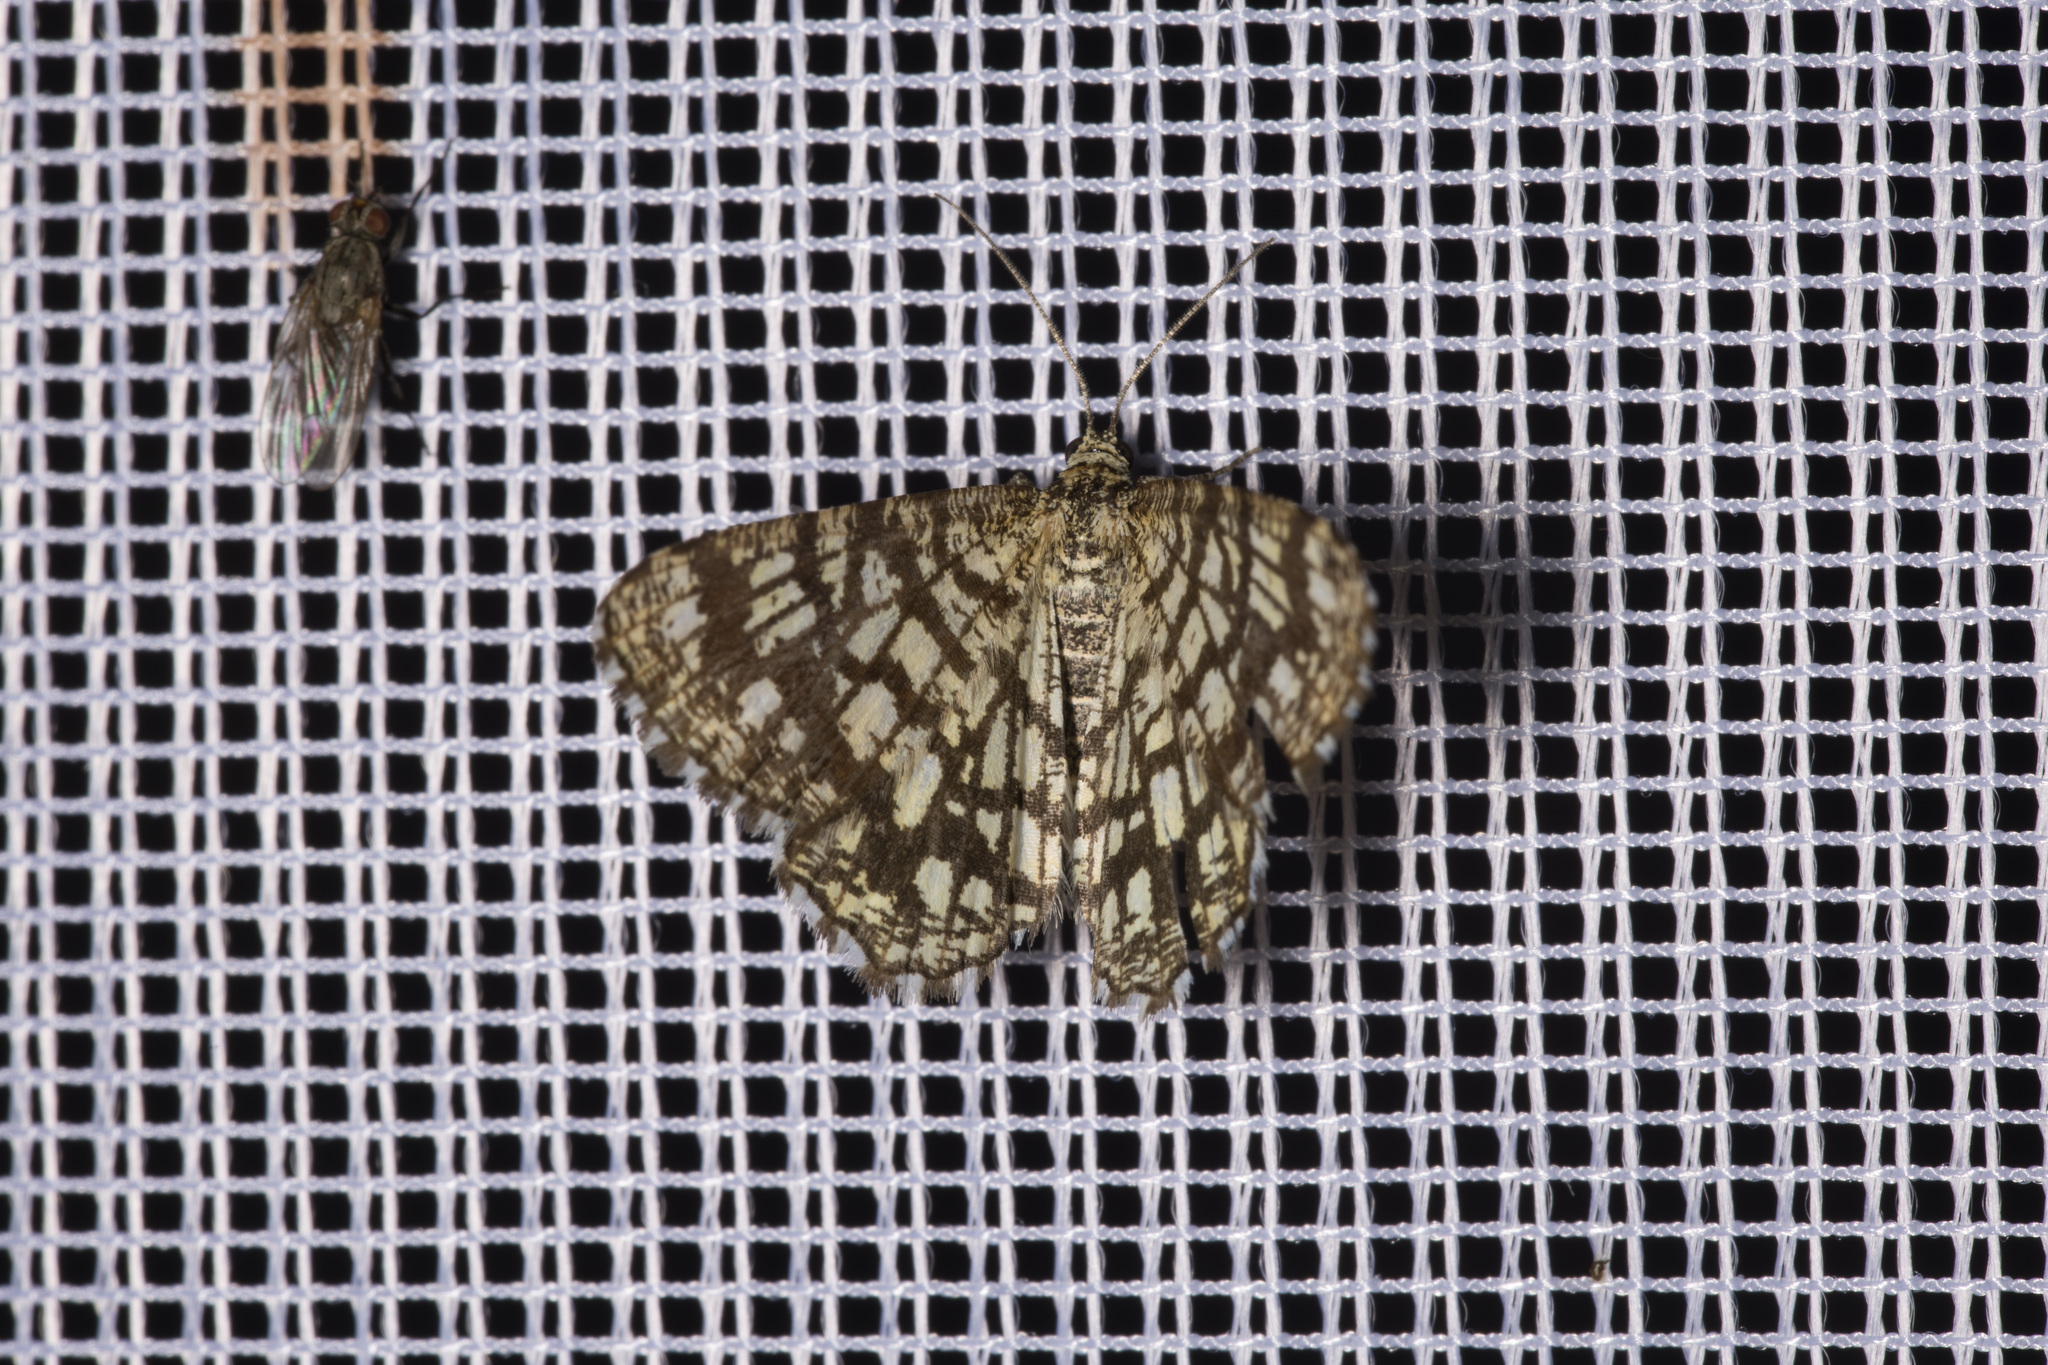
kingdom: Animalia
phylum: Arthropoda
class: Insecta
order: Lepidoptera
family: Geometridae
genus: Chiasmia
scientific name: Chiasmia clathrata
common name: Latticed heath
